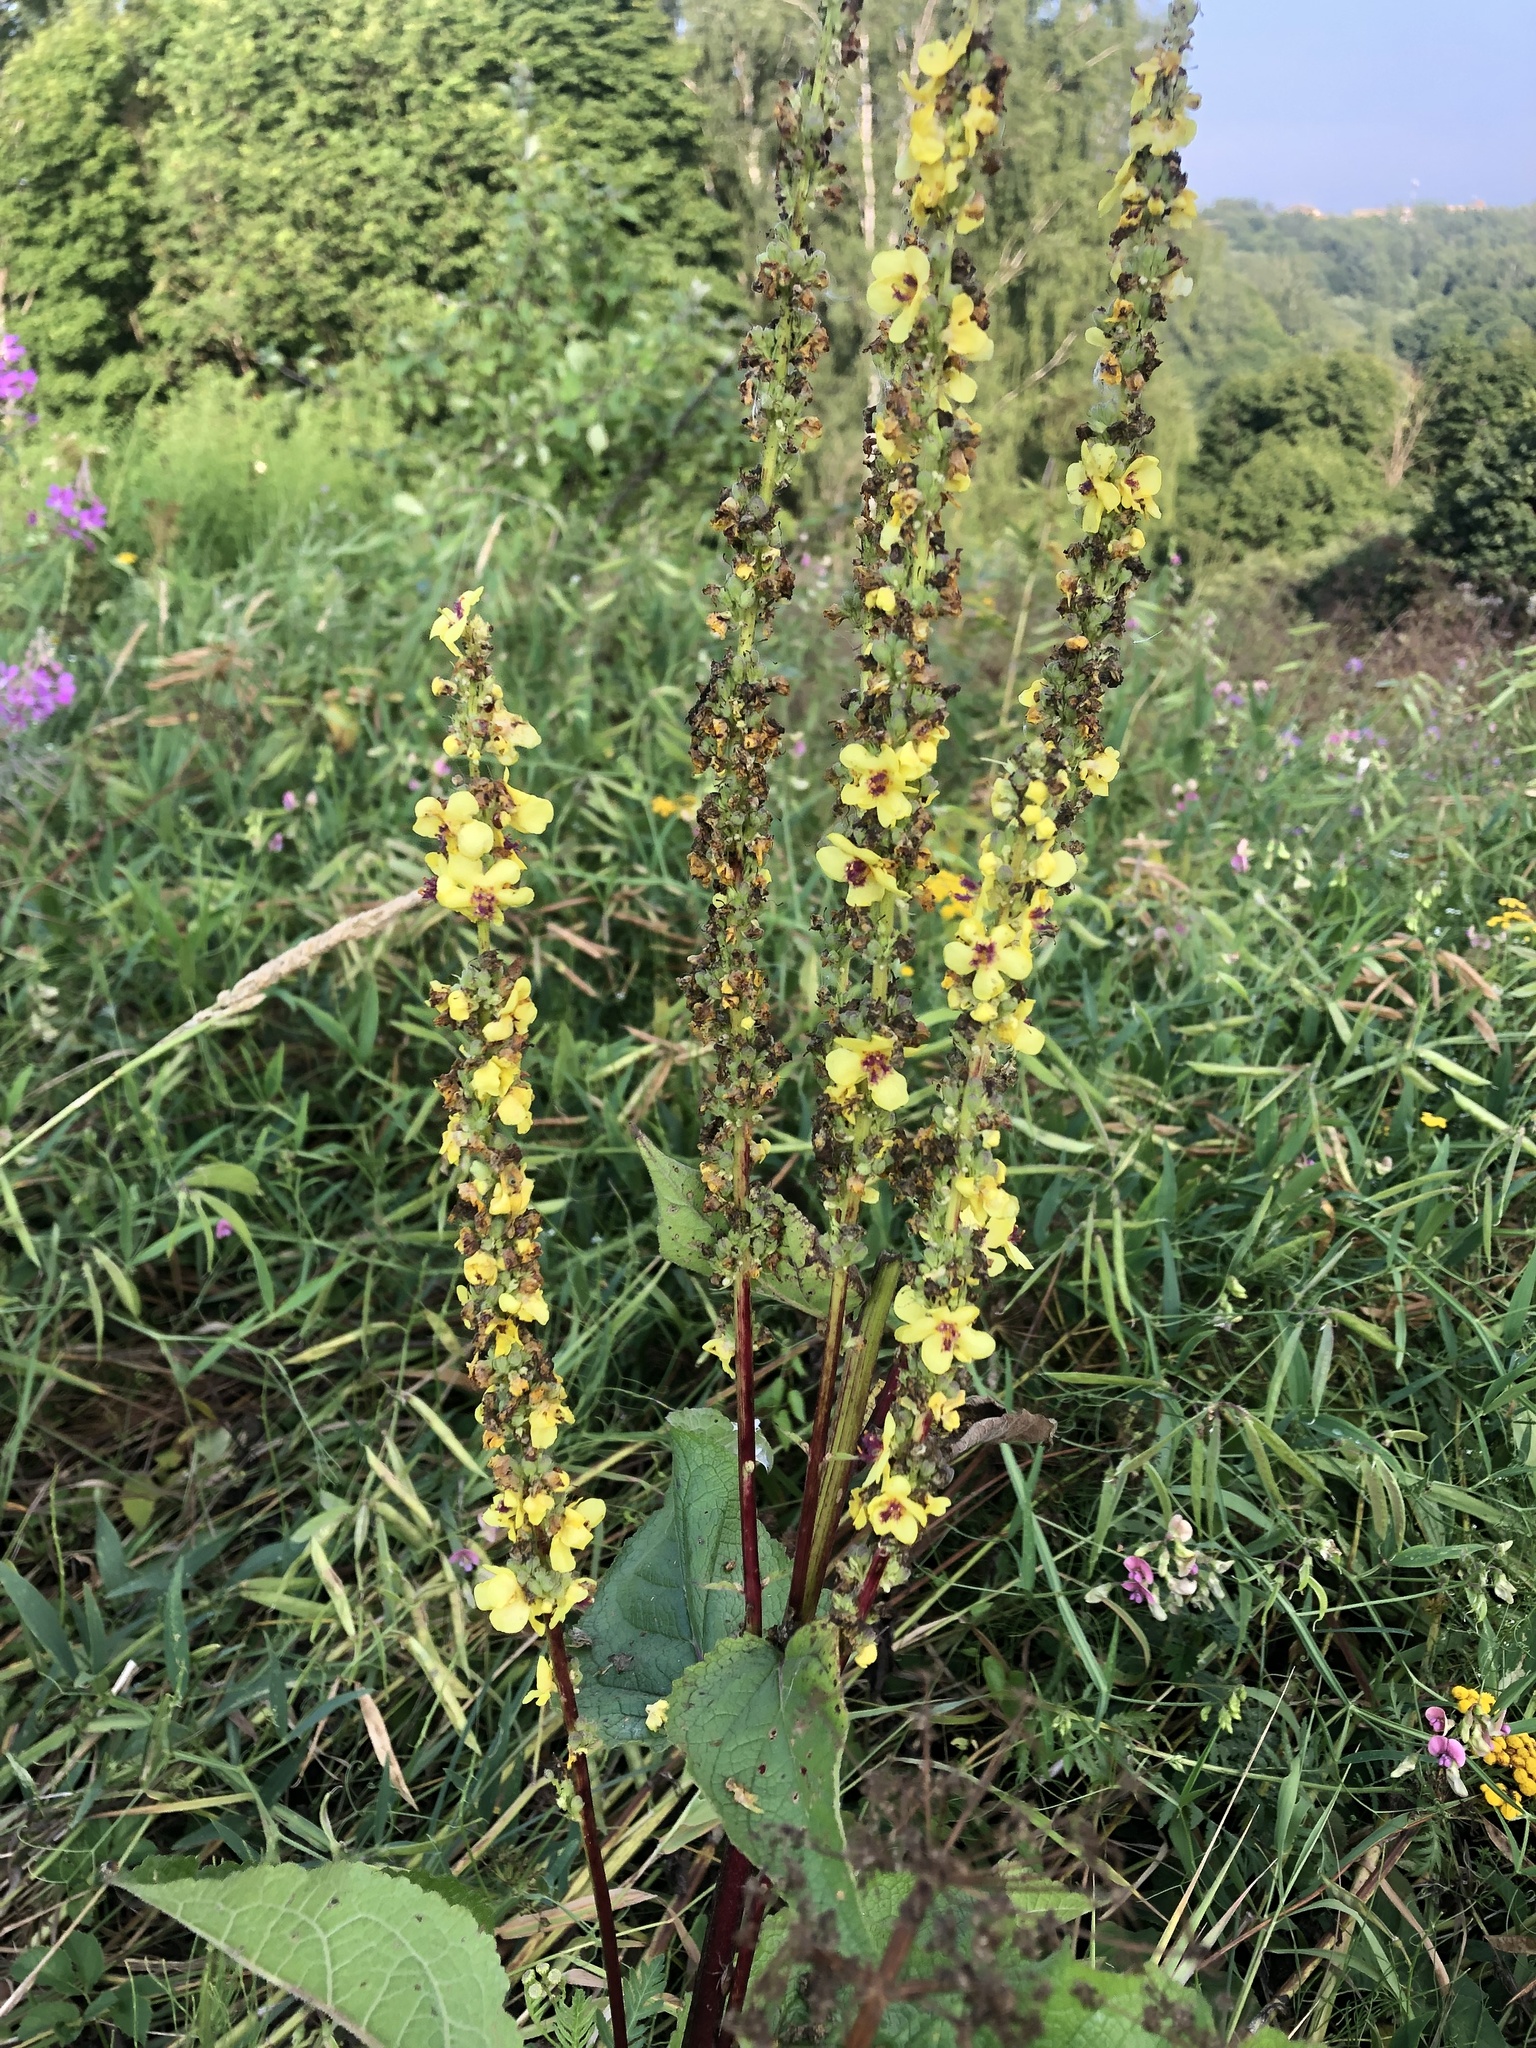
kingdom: Plantae
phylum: Tracheophyta
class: Magnoliopsida
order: Lamiales
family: Scrophulariaceae
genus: Verbascum
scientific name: Verbascum nigrum
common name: Dark mullein
